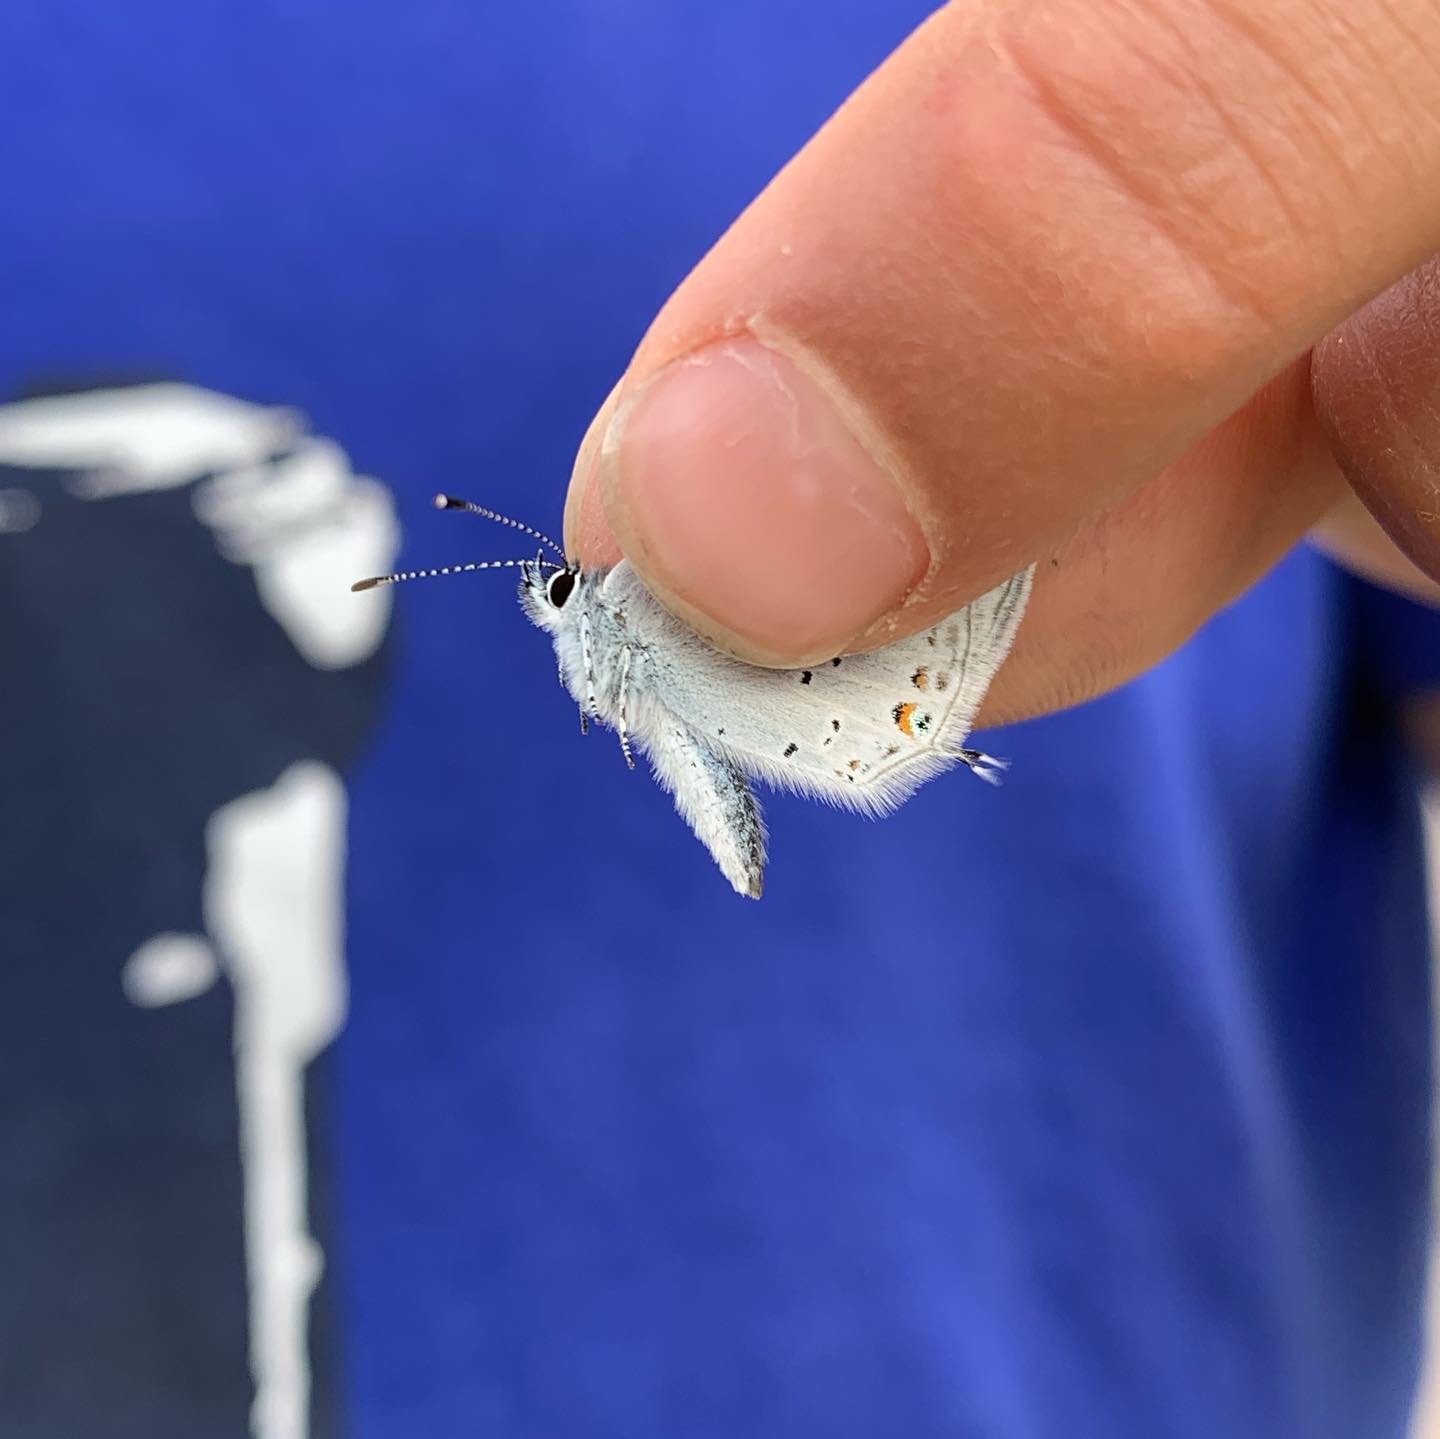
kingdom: Animalia
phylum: Arthropoda
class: Insecta
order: Lepidoptera
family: Lycaenidae
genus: Elkalyce
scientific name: Elkalyce amyntula
